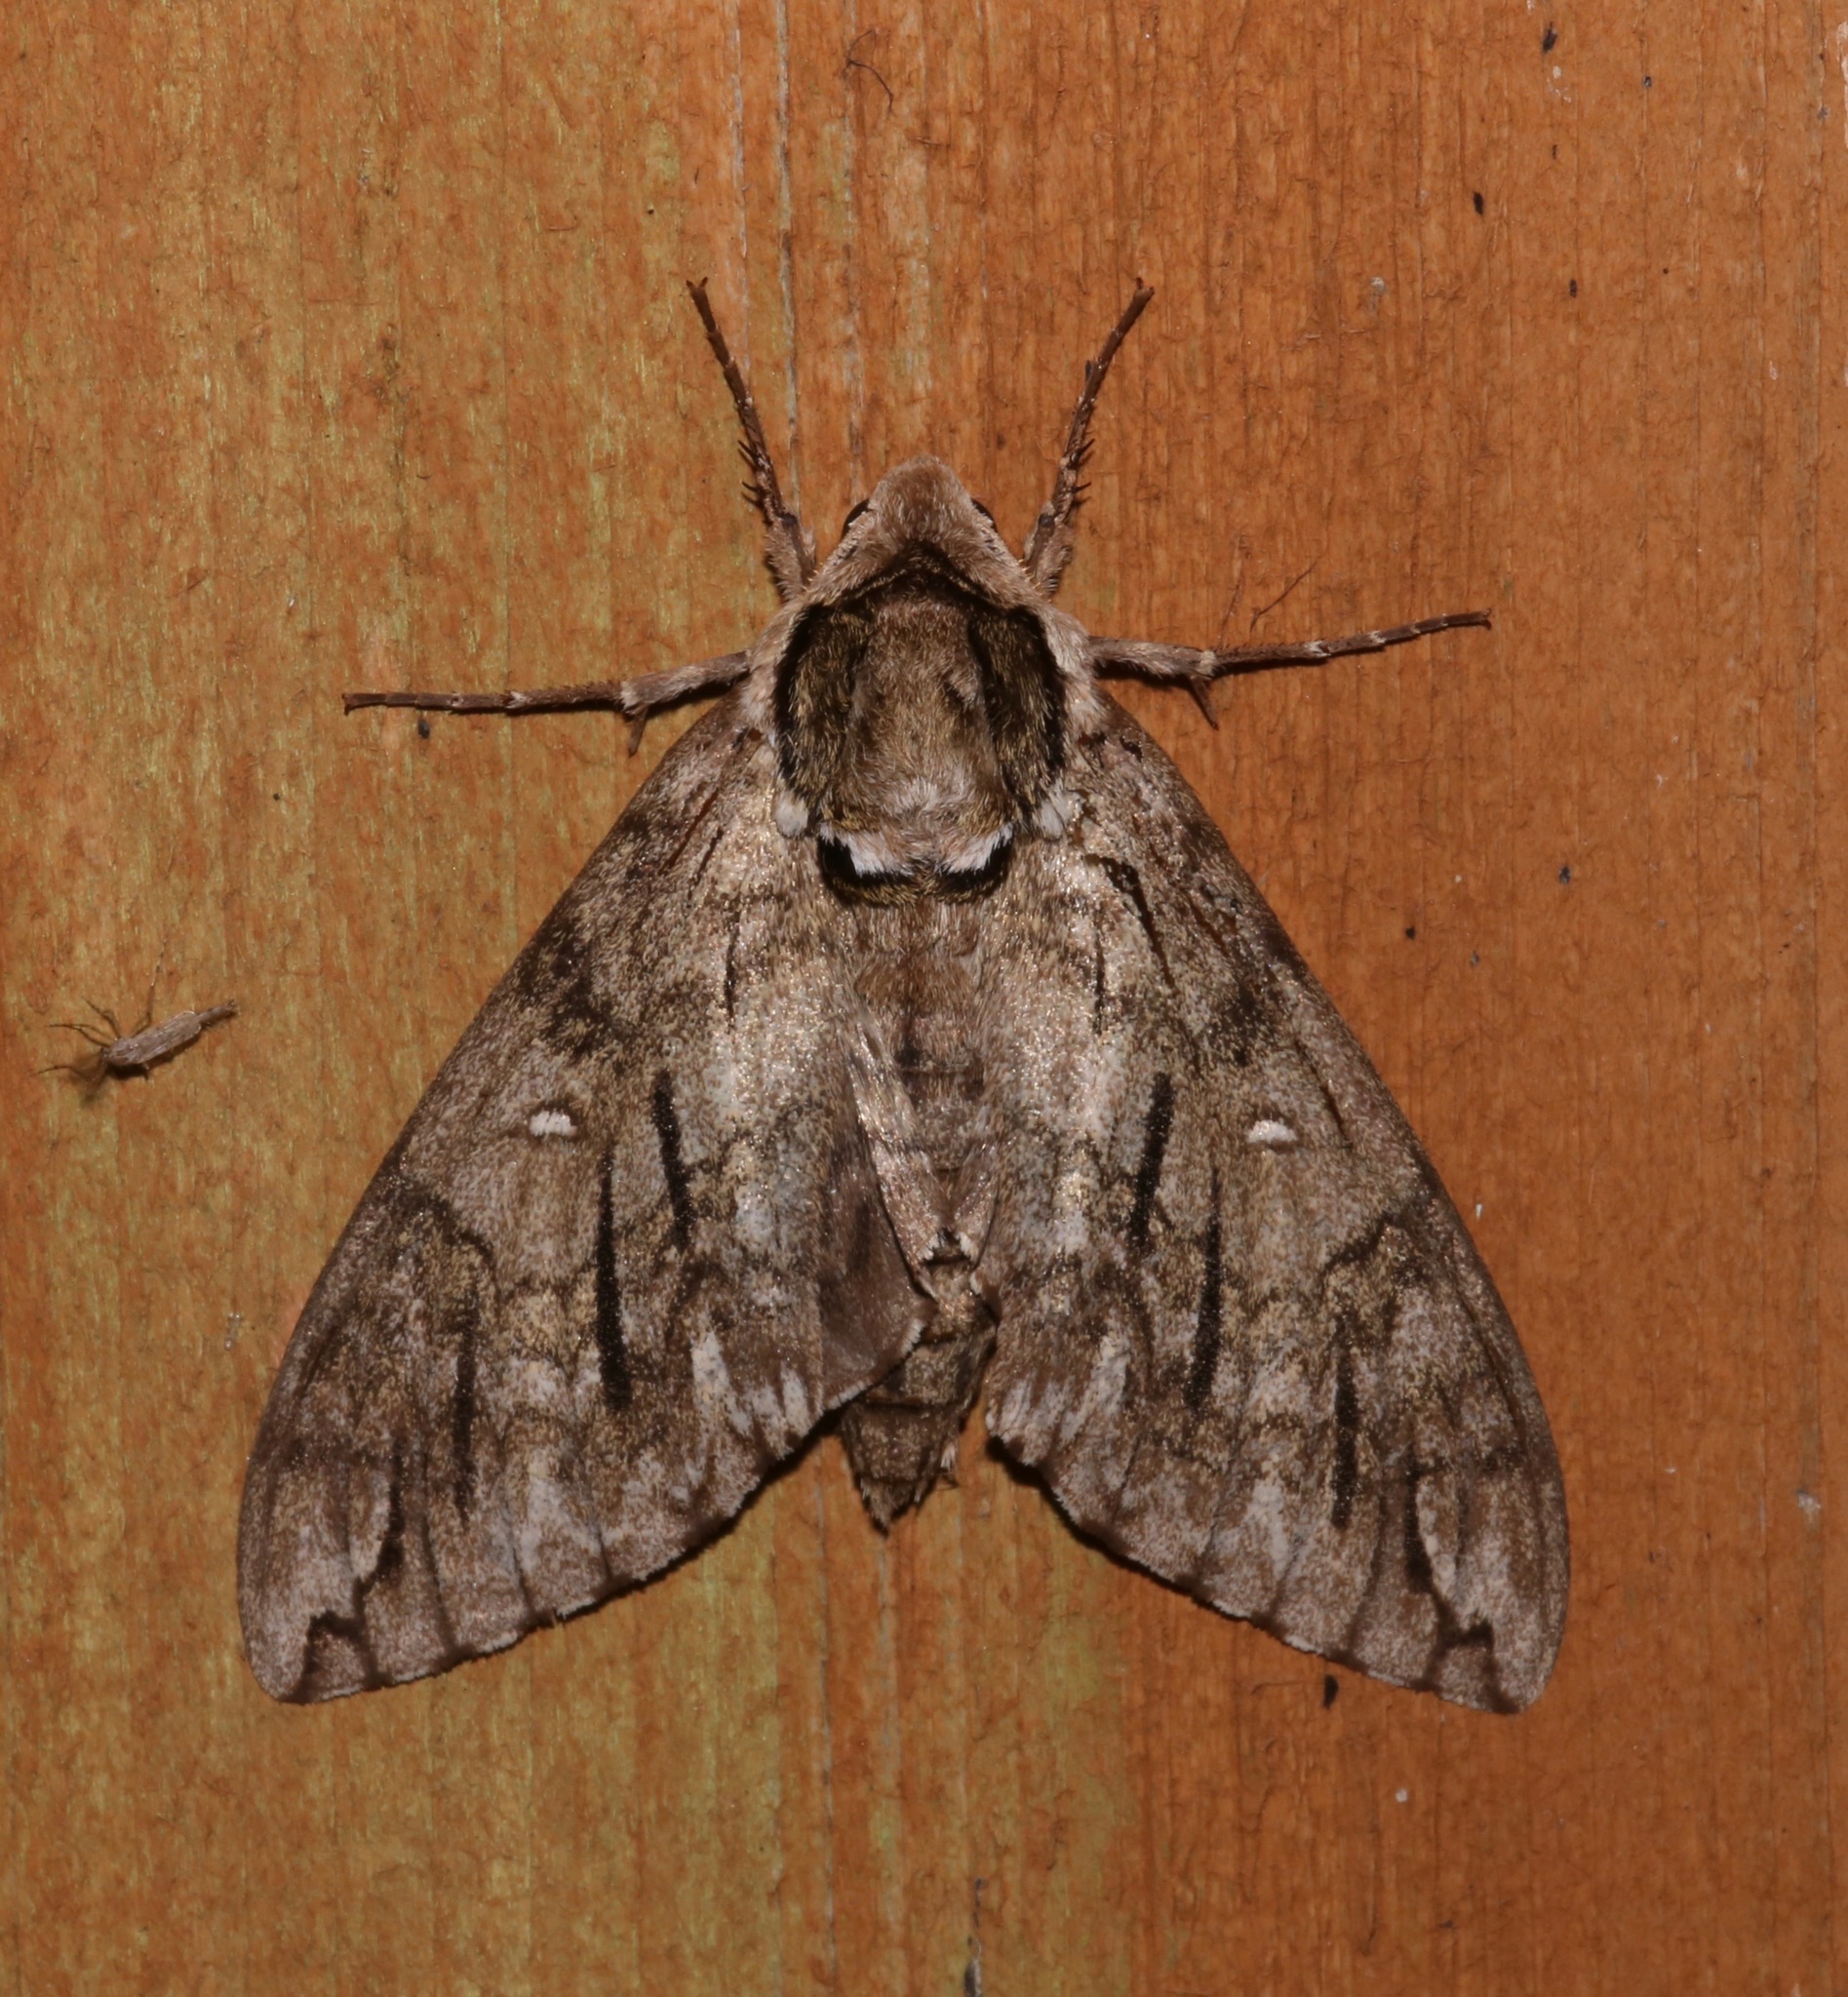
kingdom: Animalia
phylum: Arthropoda
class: Insecta
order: Lepidoptera
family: Sphingidae
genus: Ceratomia
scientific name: Ceratomia undulosa
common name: Waved sphinx
